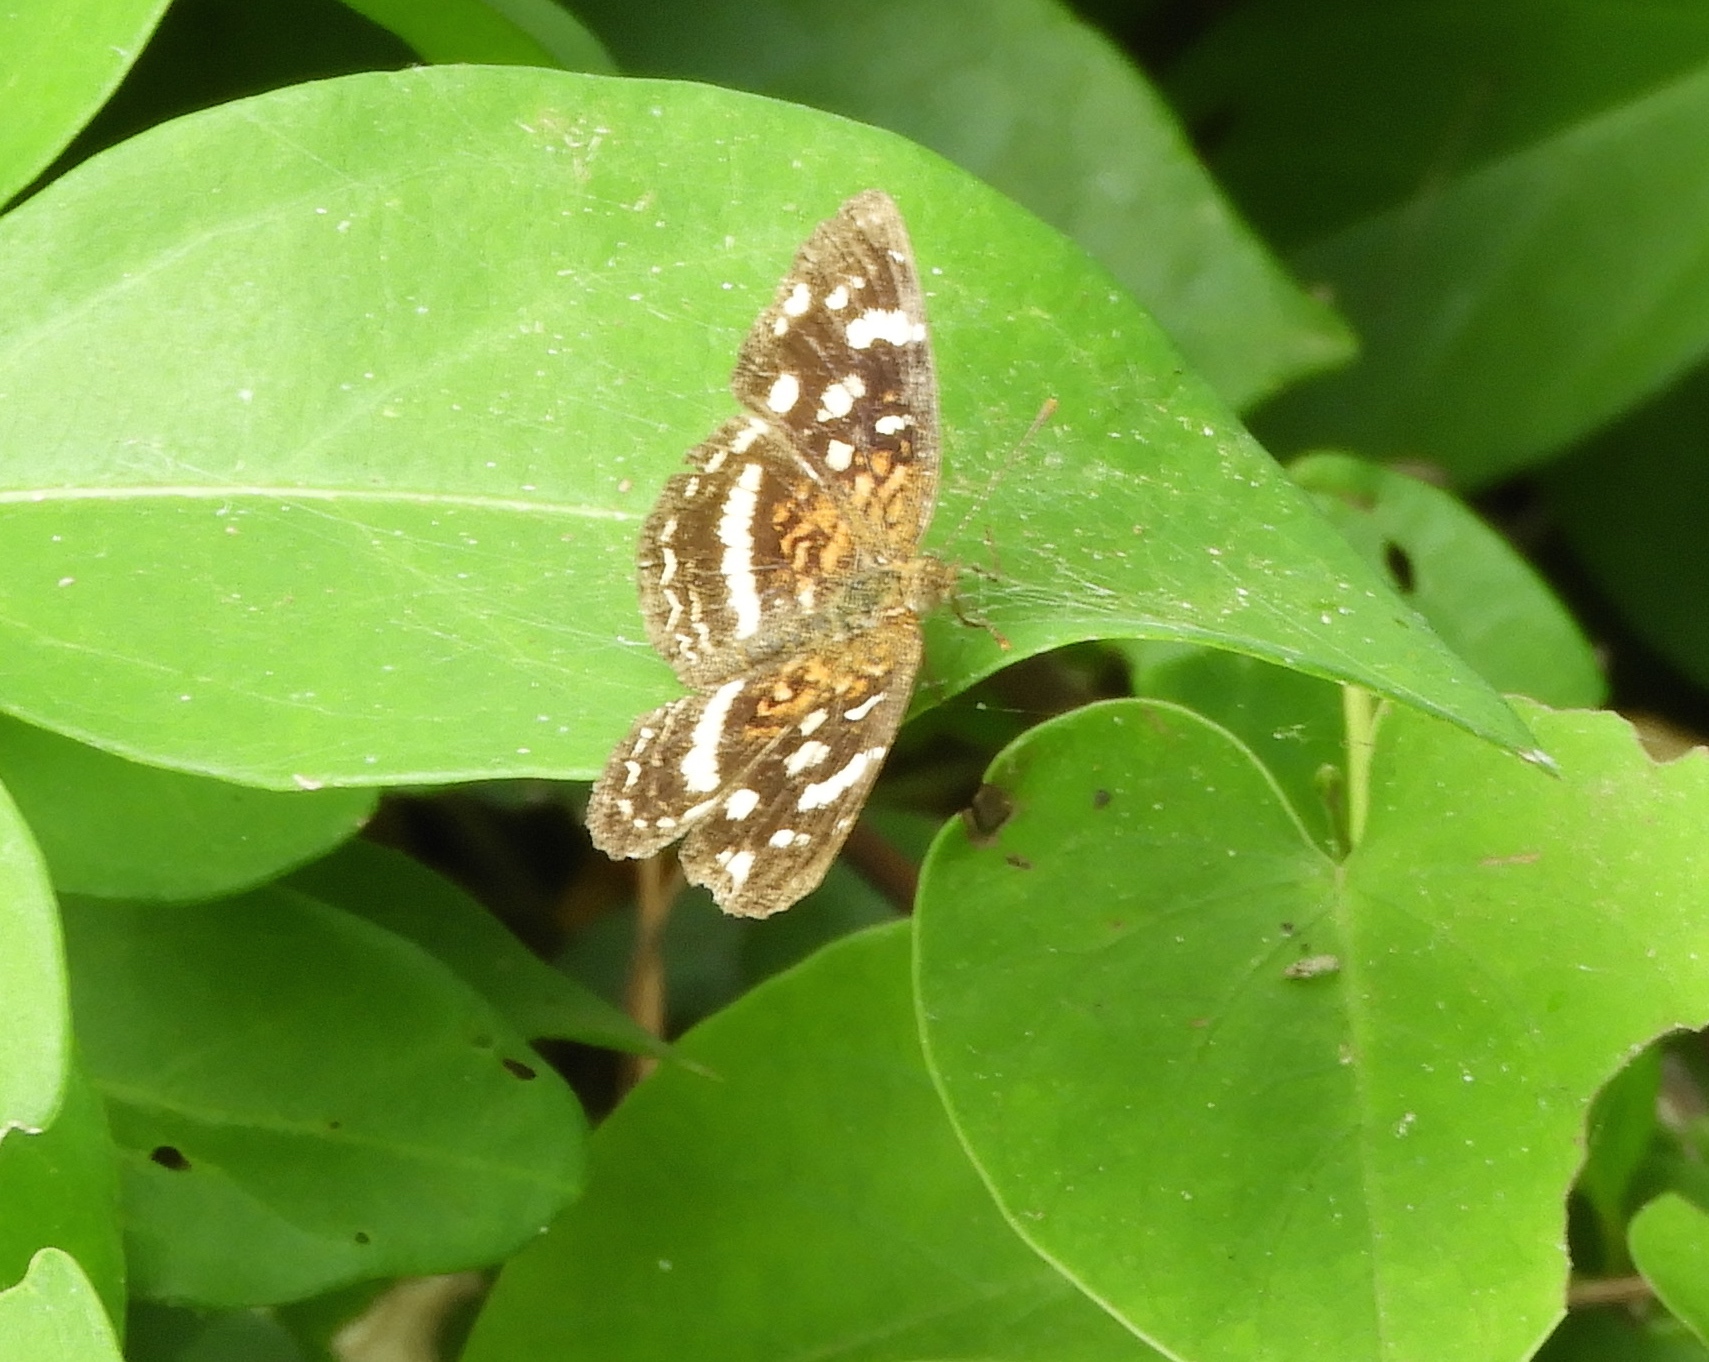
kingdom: Animalia
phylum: Arthropoda
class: Insecta
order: Lepidoptera
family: Nymphalidae
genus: Anthanassa
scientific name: Anthanassa tulcis
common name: Pale-banded crescent
